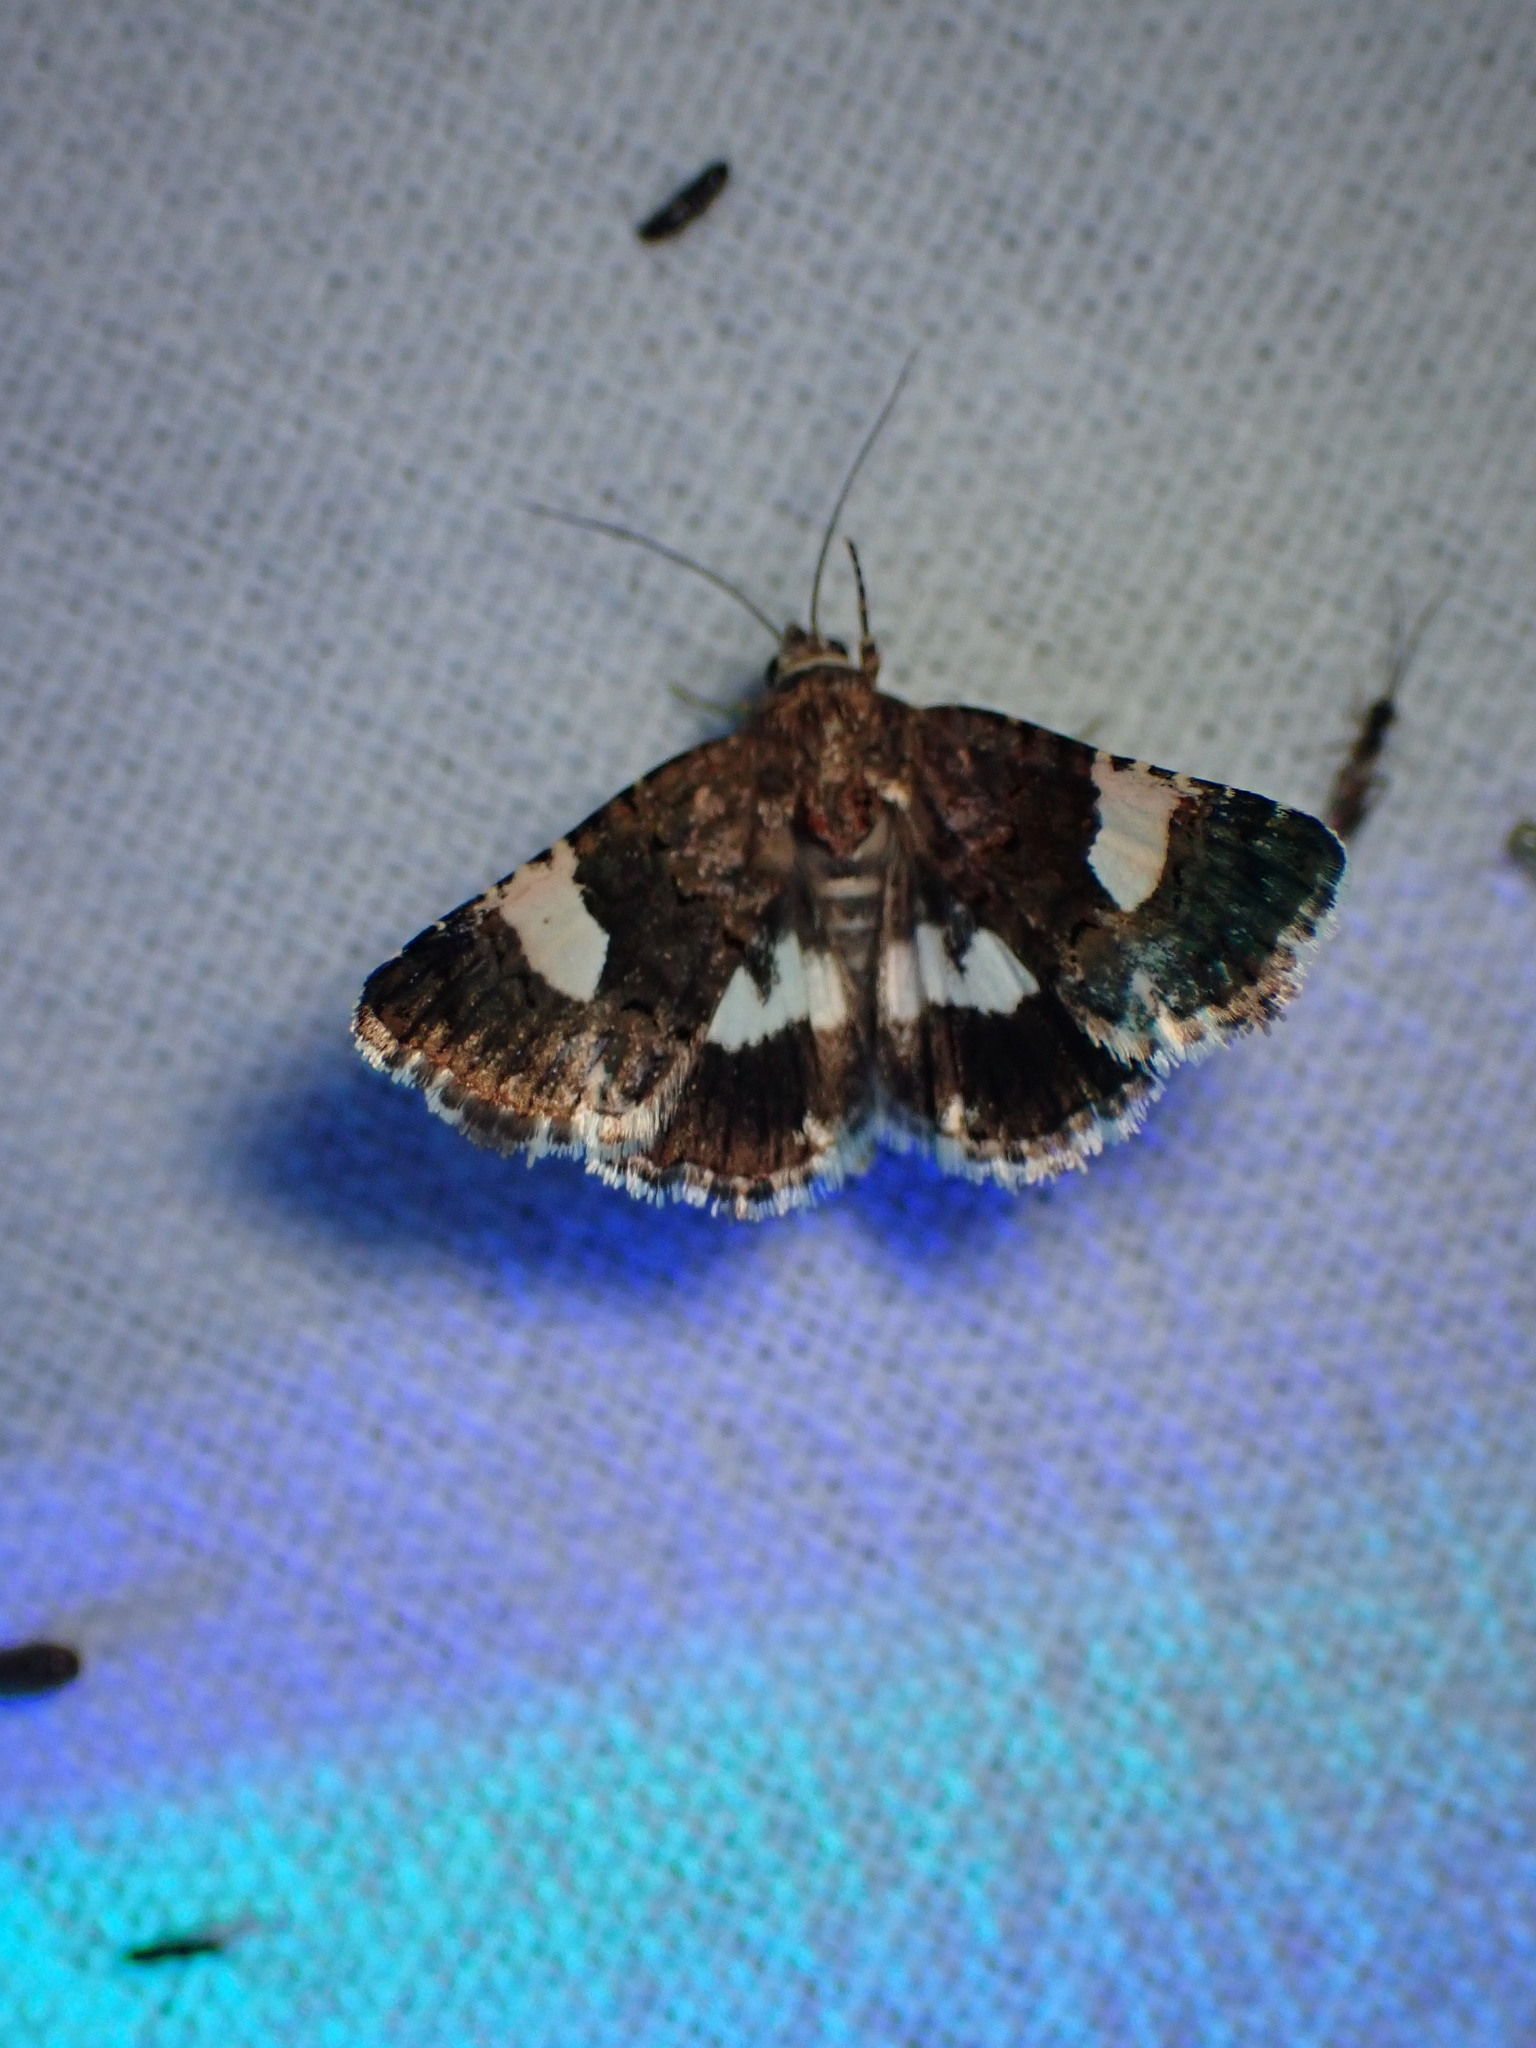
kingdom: Animalia
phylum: Arthropoda
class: Insecta
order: Lepidoptera
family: Erebidae
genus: Tyta
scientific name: Tyta luctuosa
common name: Four-spotted
